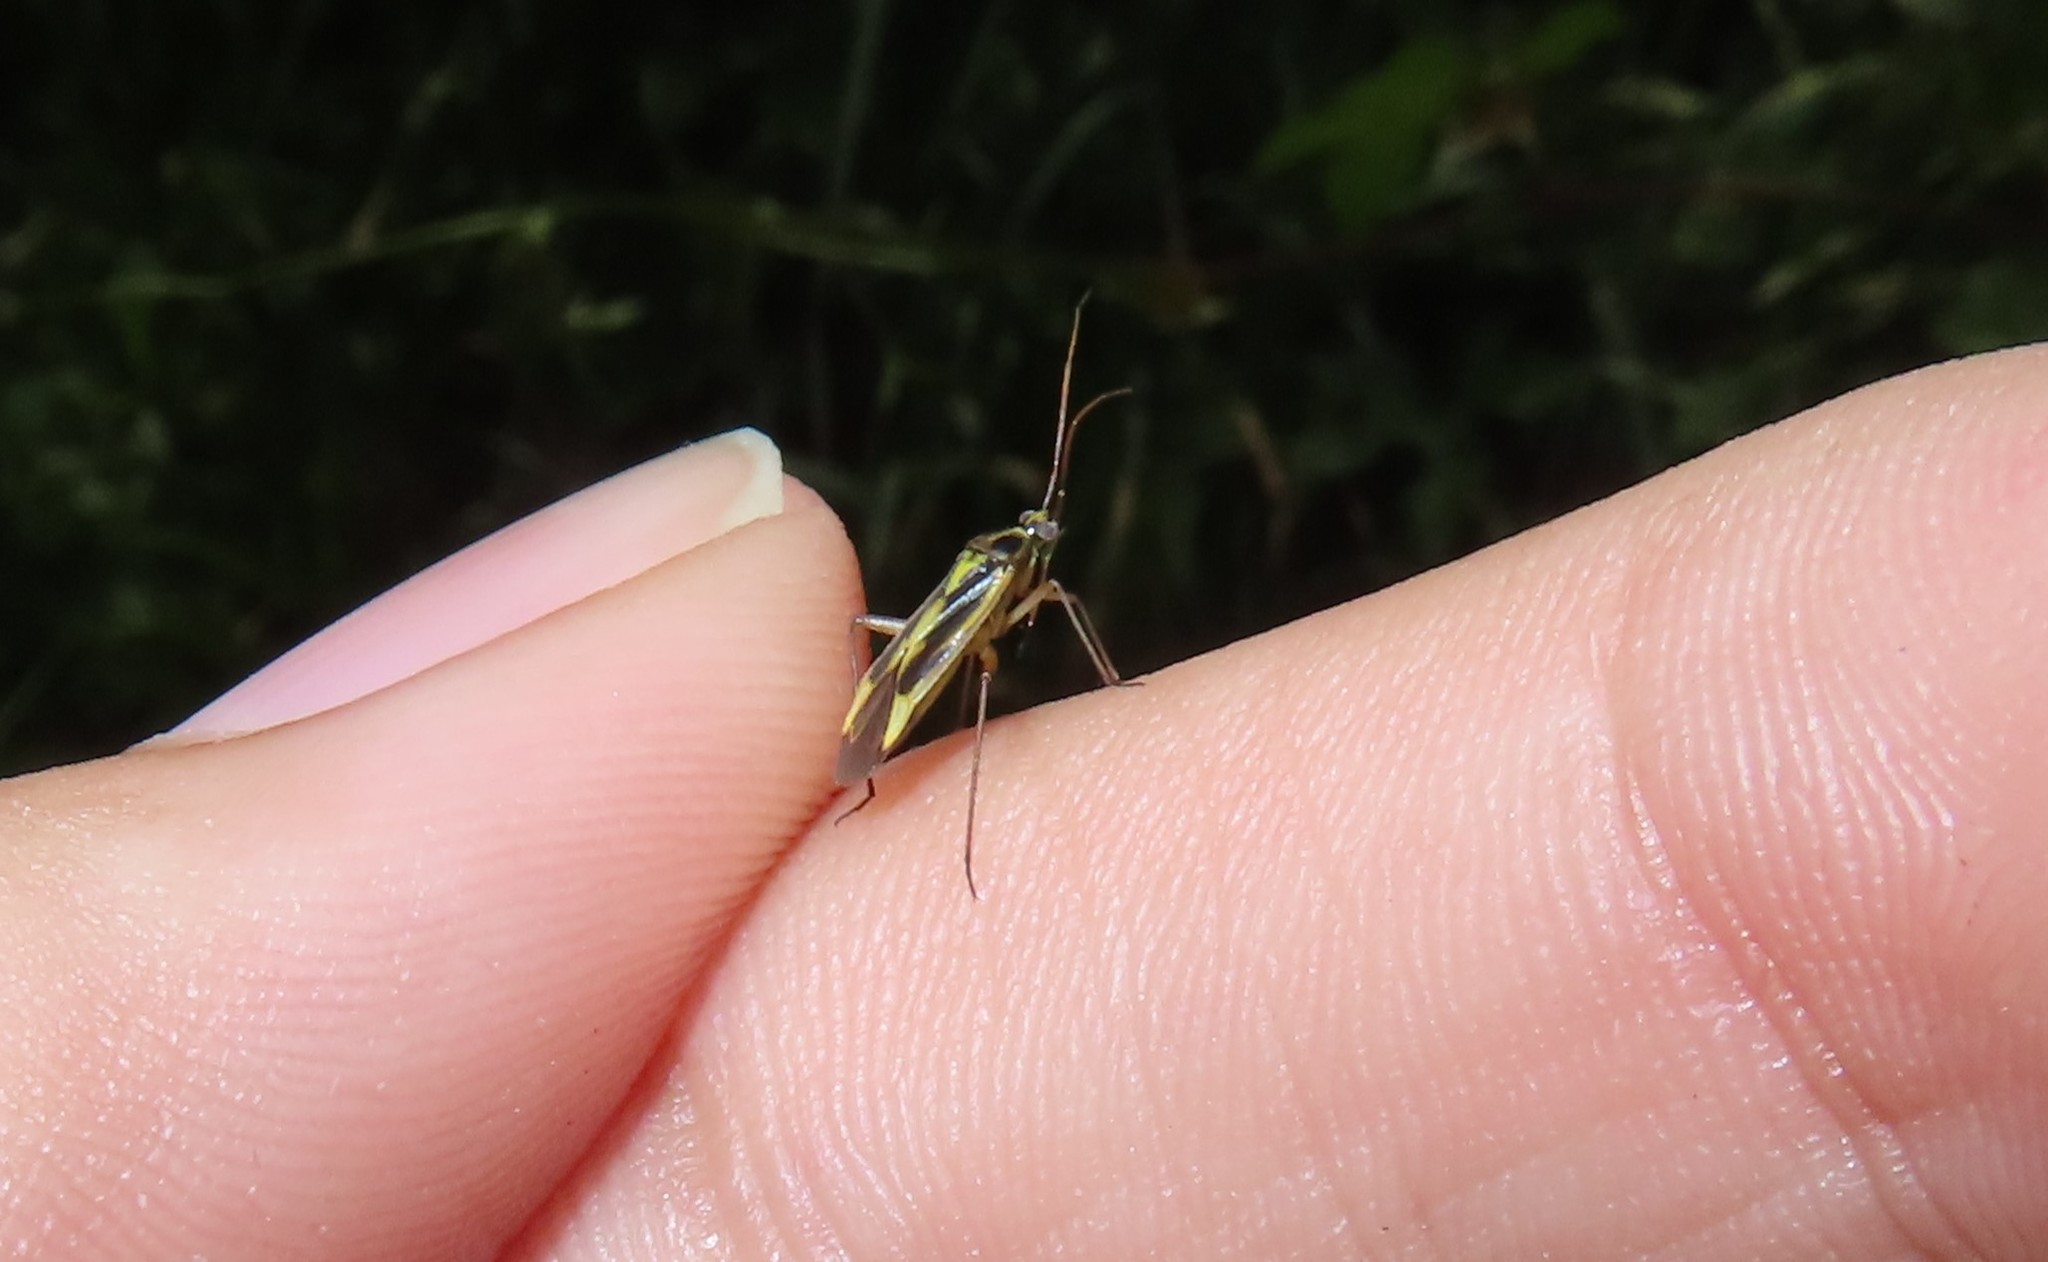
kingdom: Animalia
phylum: Arthropoda
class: Insecta
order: Hemiptera
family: Miridae
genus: Stenotus
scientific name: Stenotus binotatus
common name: Plant bug
